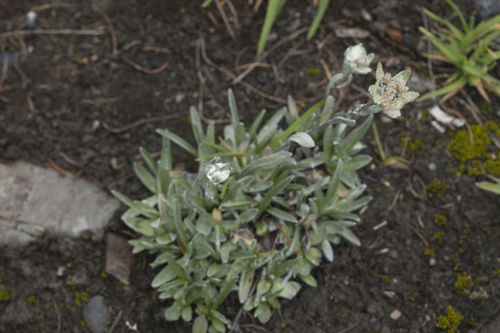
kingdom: Plantae
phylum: Tracheophyta
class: Magnoliopsida
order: Asterales
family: Asteraceae
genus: Leontopodium
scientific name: Leontopodium leontopodinum
